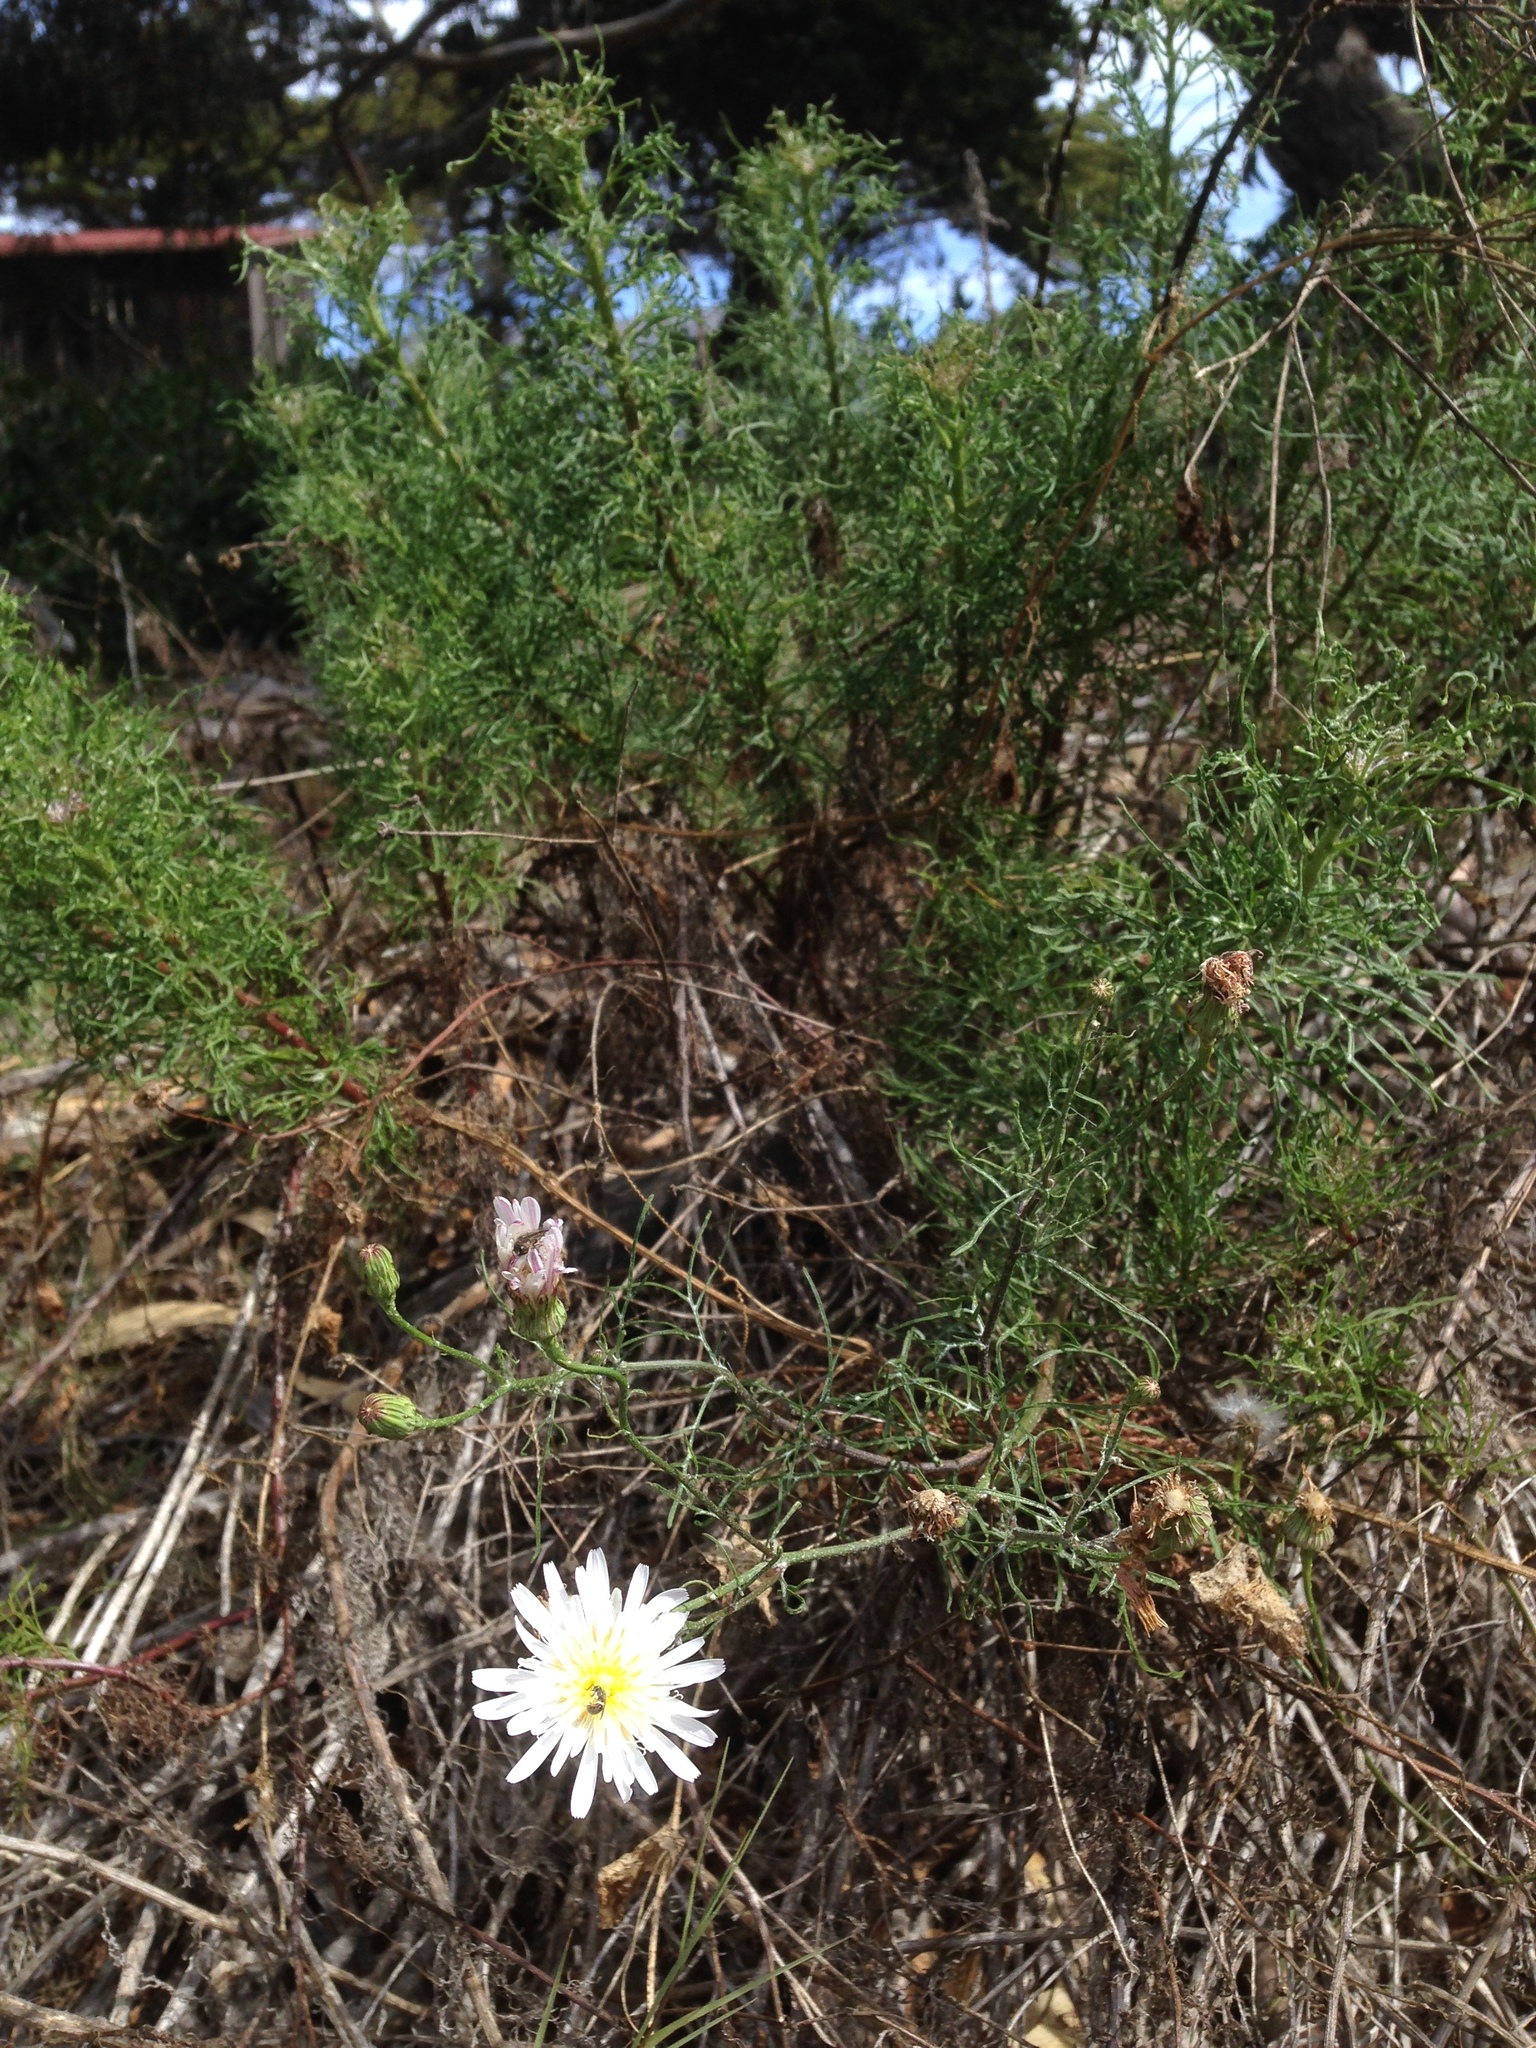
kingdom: Plantae
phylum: Tracheophyta
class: Magnoliopsida
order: Asterales
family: Asteraceae
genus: Malacothrix
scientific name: Malacothrix saxatilis
